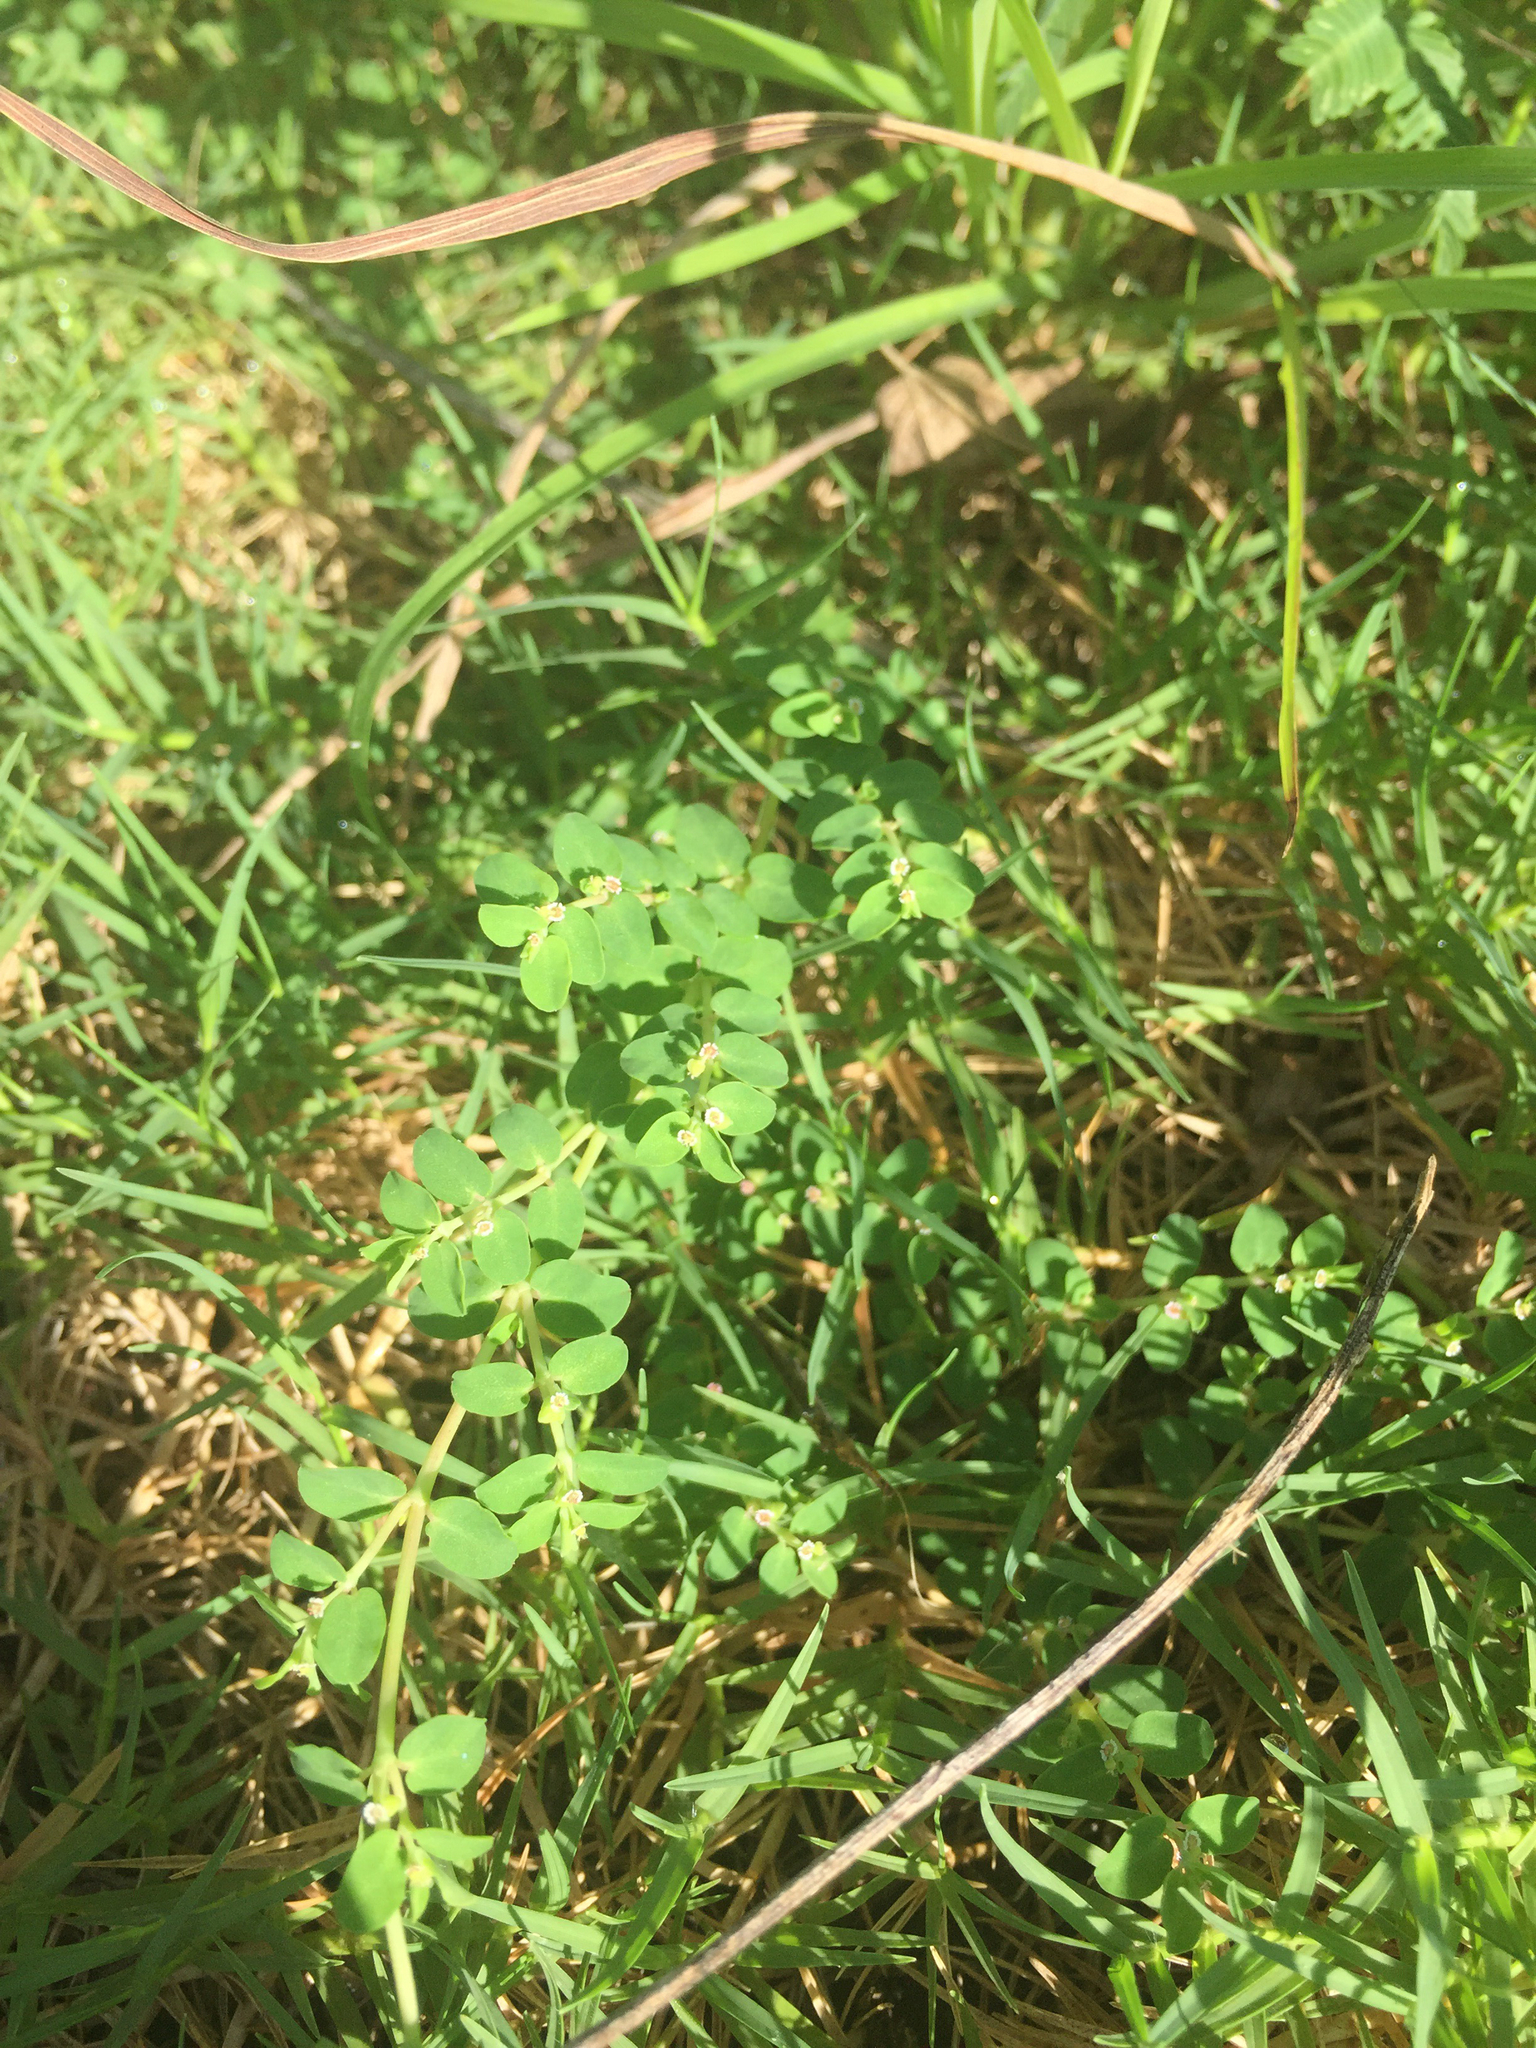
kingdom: Plantae
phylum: Tracheophyta
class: Magnoliopsida
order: Malpighiales
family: Euphorbiaceae
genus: Euphorbia
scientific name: Euphorbia serpens
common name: Matted sandmat
